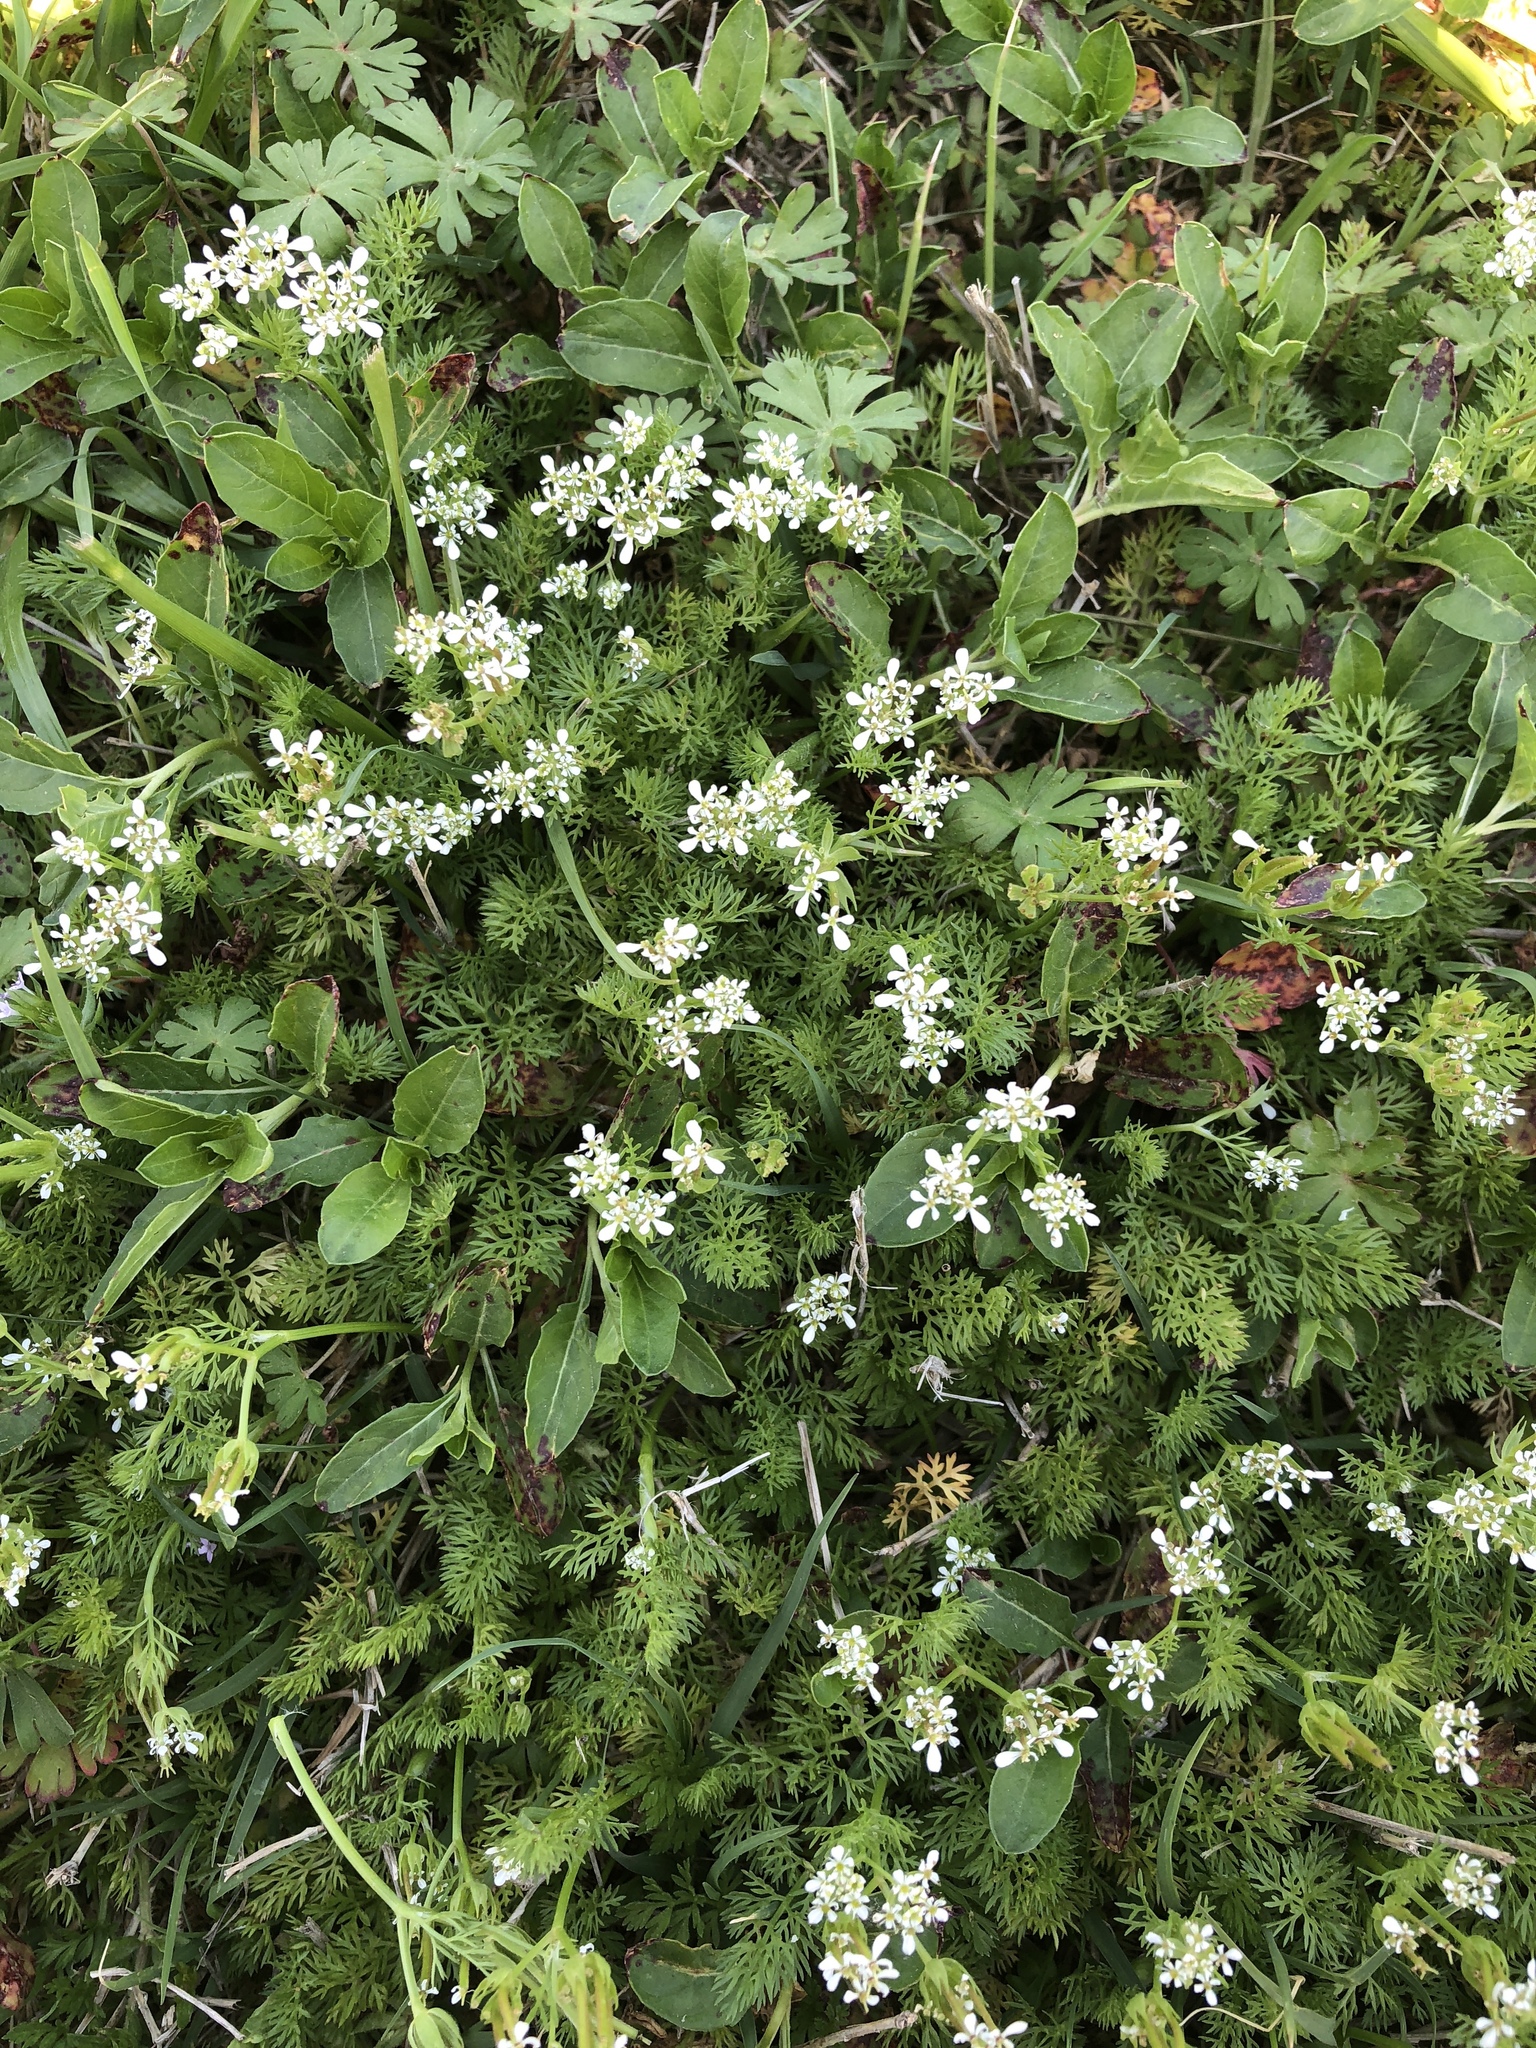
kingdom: Plantae
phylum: Tracheophyta
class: Magnoliopsida
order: Apiales
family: Apiaceae
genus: Scandix
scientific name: Scandix pecten-veneris
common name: Shepherd's-needle
